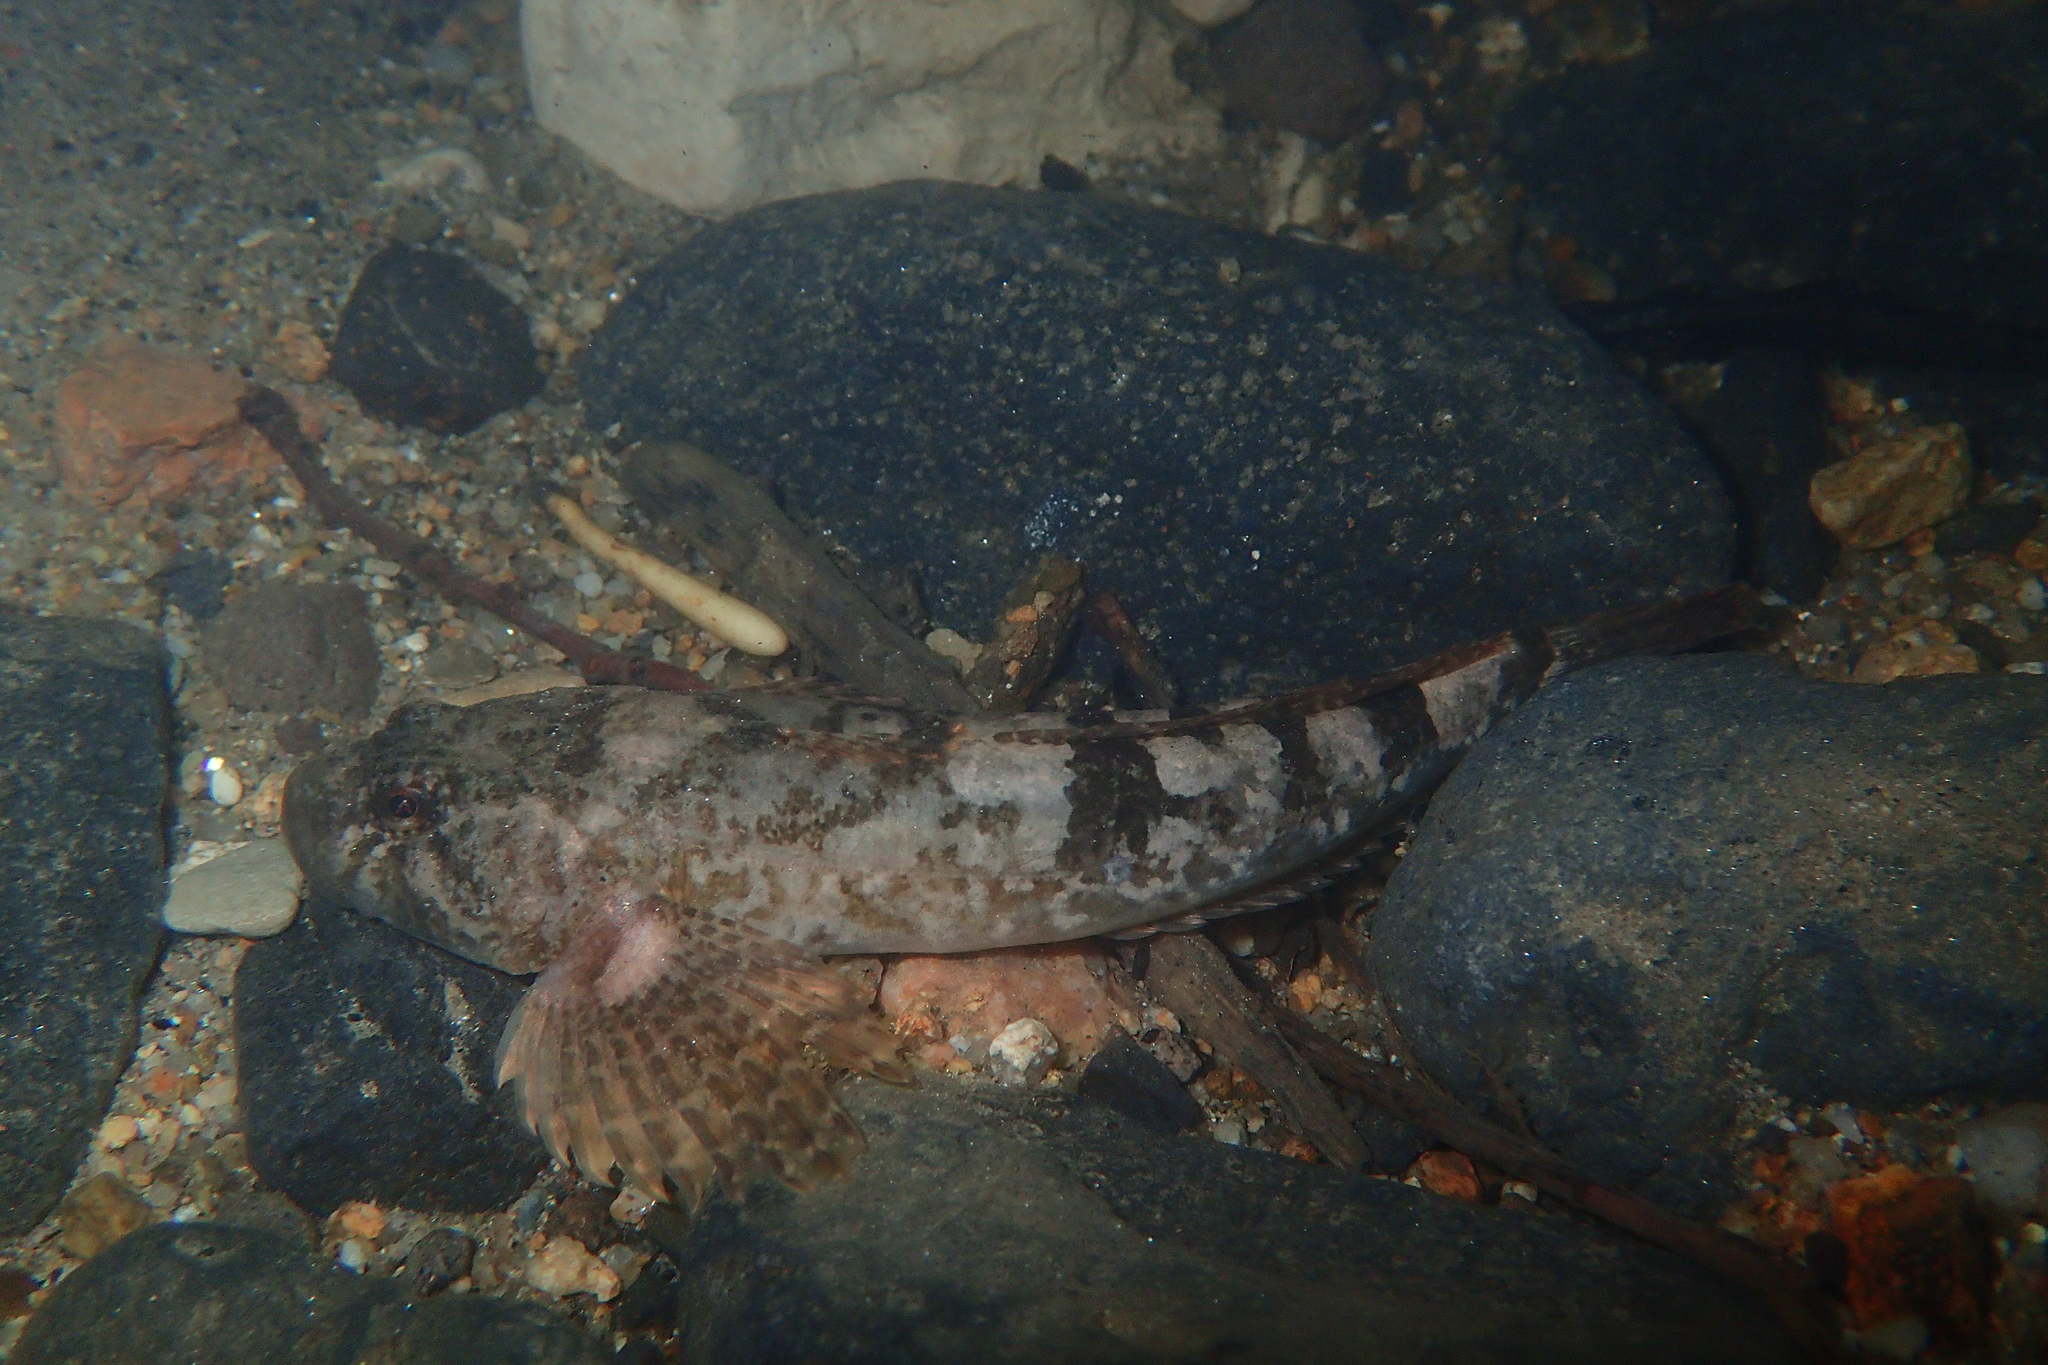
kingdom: Animalia
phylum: Chordata
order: Scorpaeniformes
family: Cottidae
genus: Cottus
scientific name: Cottus duranii
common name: Dordogne sculpin
